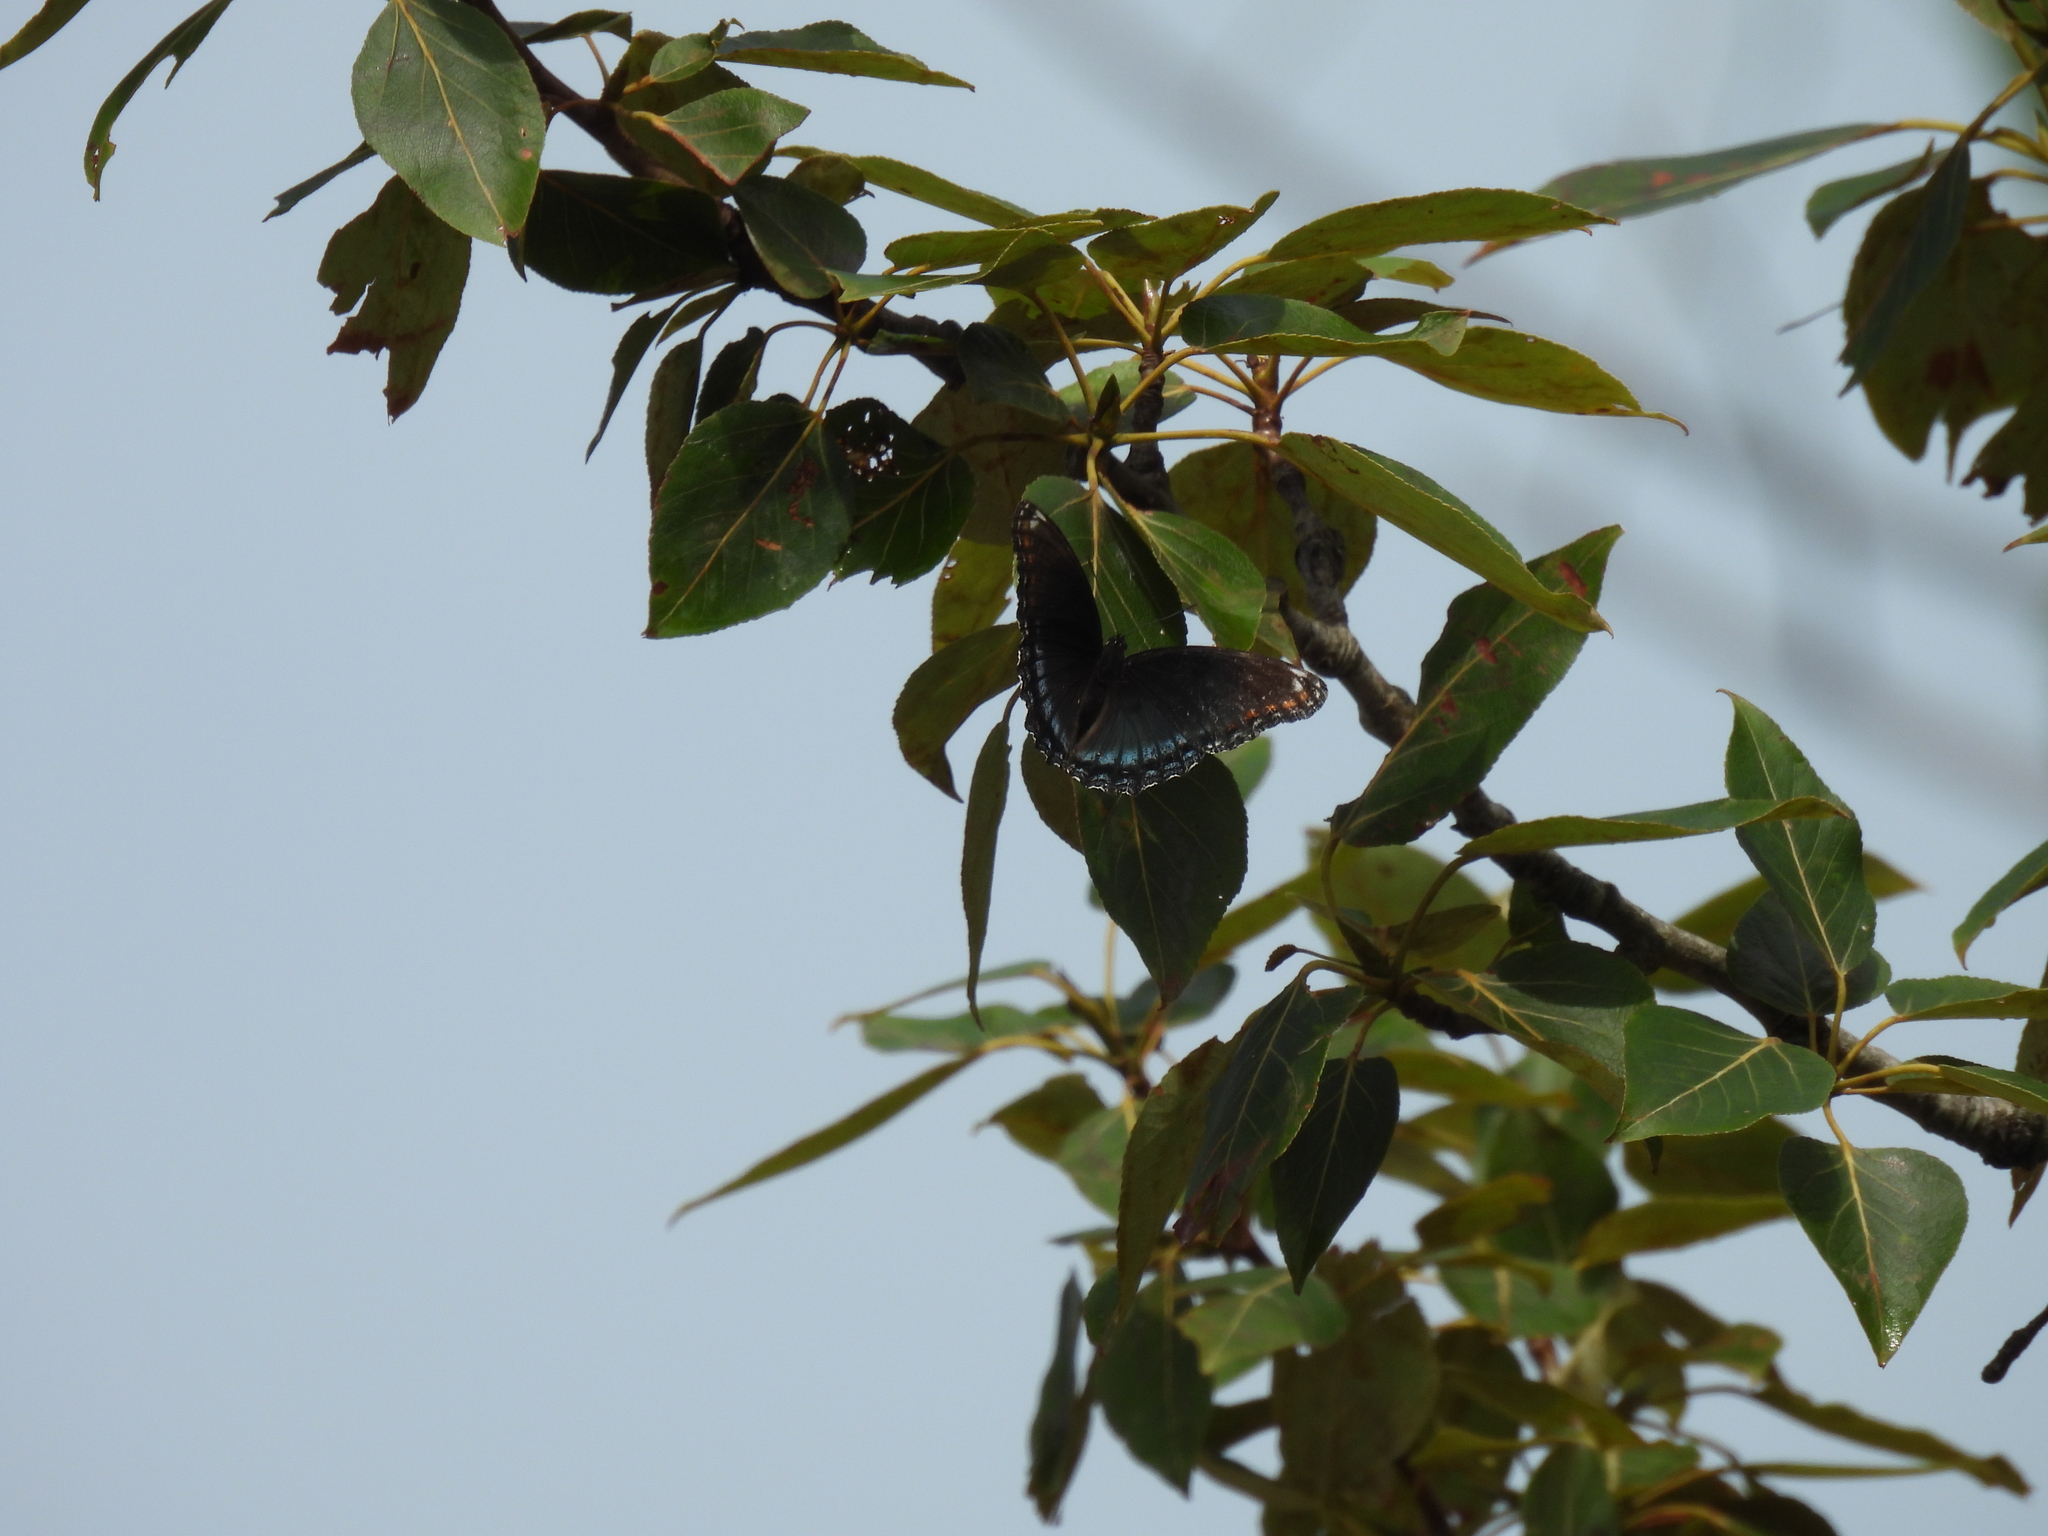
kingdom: Animalia
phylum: Arthropoda
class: Insecta
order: Lepidoptera
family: Nymphalidae
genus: Limenitis
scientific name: Limenitis astyanax
